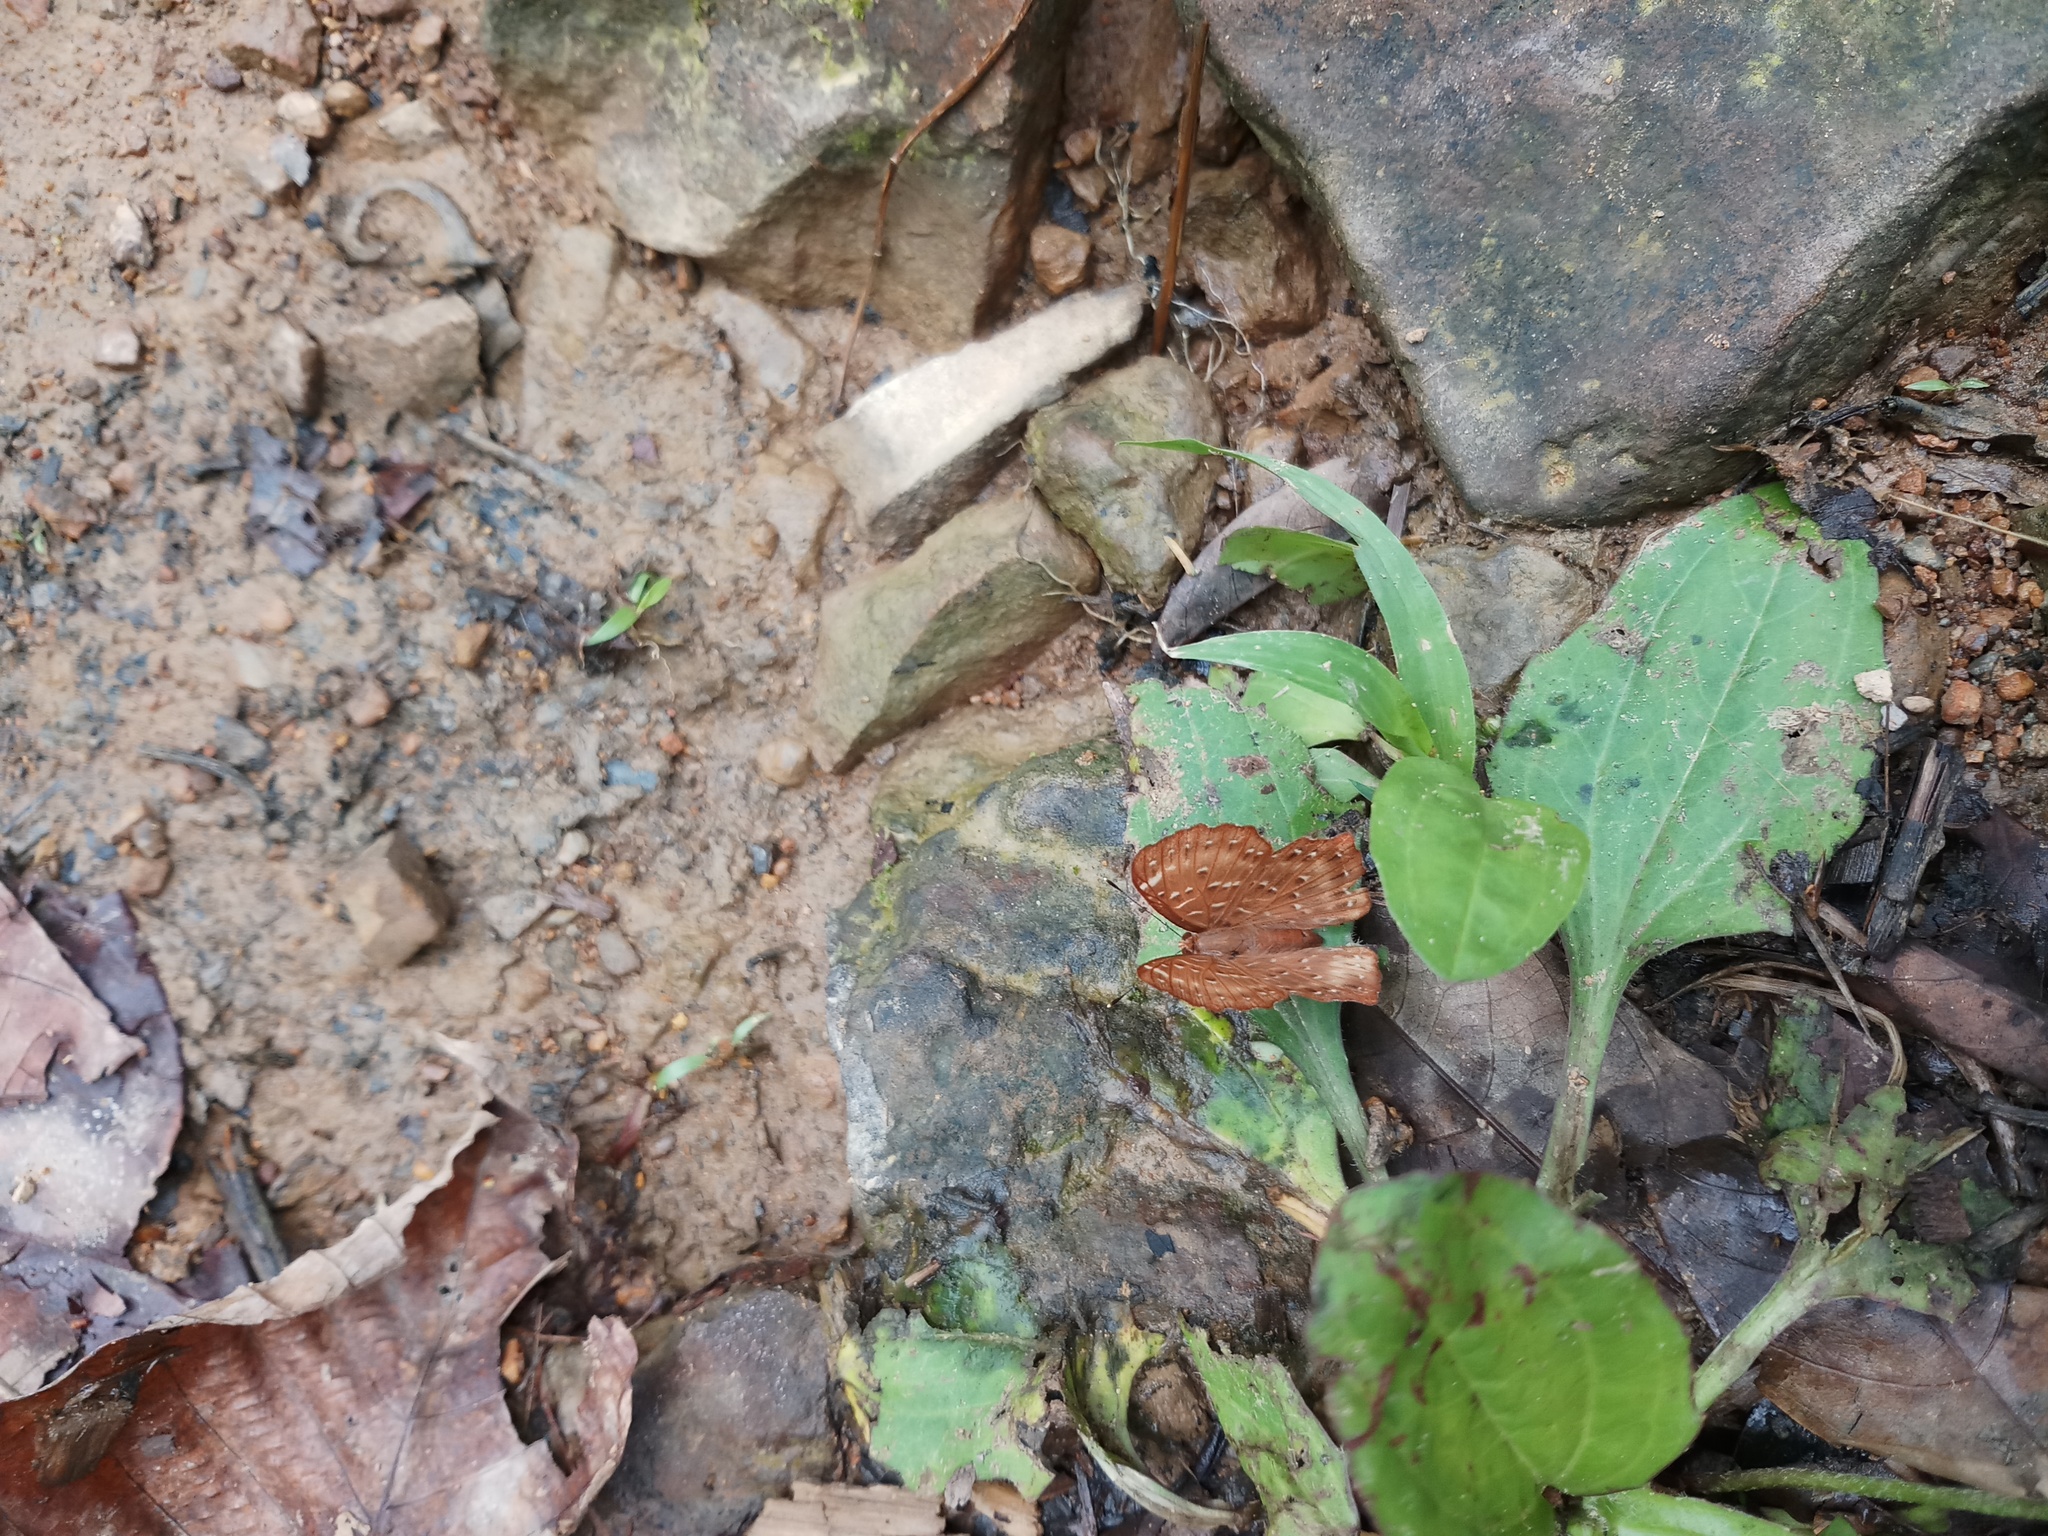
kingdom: Animalia
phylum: Arthropoda
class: Insecta
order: Lepidoptera
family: Riodinidae
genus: Zemeros
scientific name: Zemeros flegyas
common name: Punchinello
